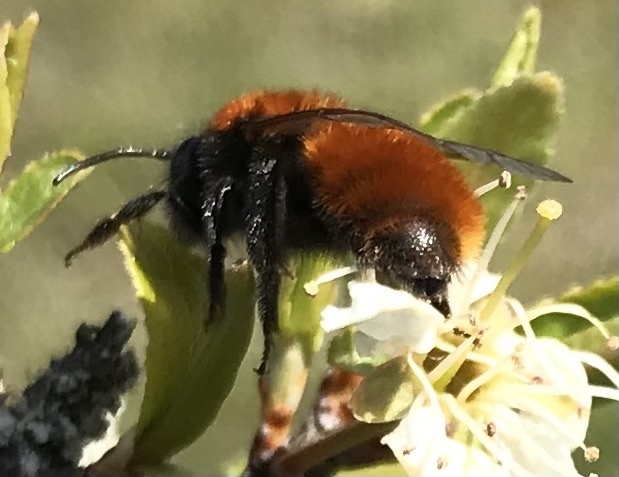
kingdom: Animalia
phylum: Arthropoda
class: Insecta
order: Hymenoptera
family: Andrenidae
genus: Andrena
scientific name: Andrena fulva
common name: Tawny mining bee
